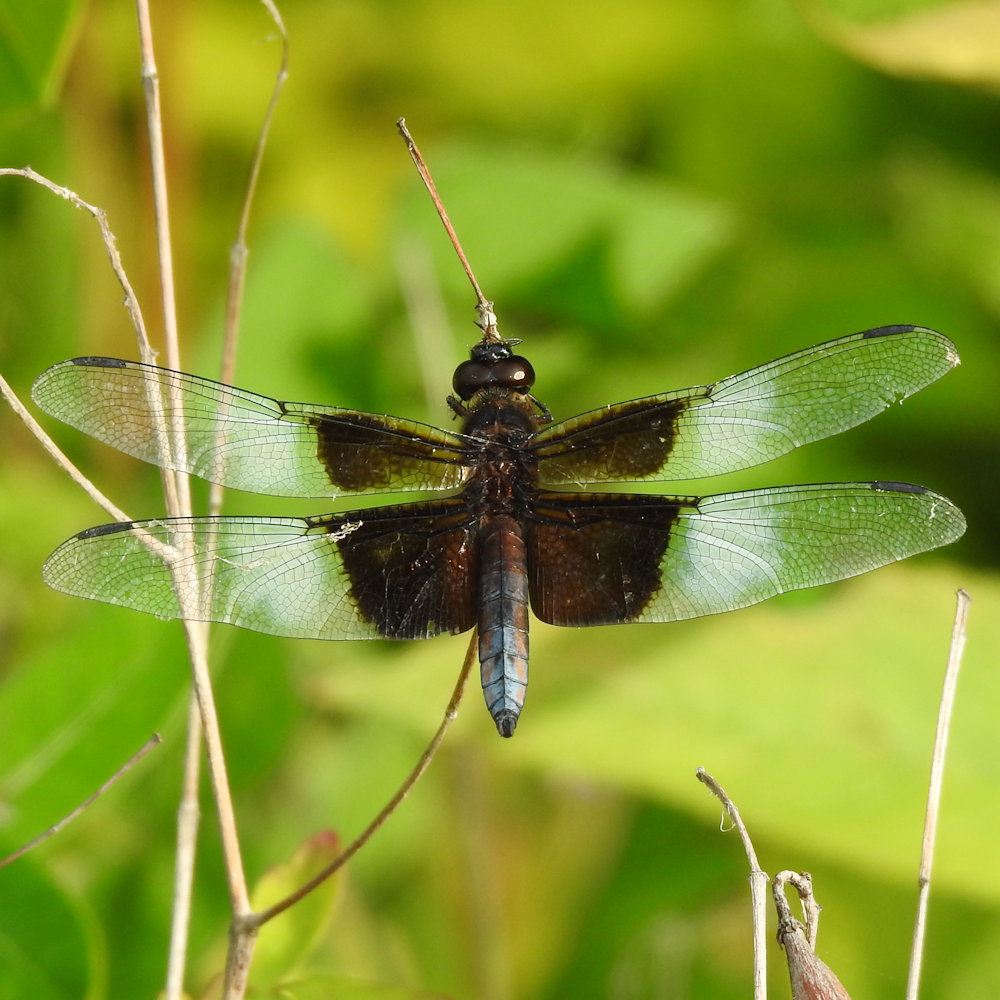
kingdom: Animalia
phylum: Arthropoda
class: Insecta
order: Odonata
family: Libellulidae
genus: Libellula
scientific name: Libellula luctuosa
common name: Widow skimmer
